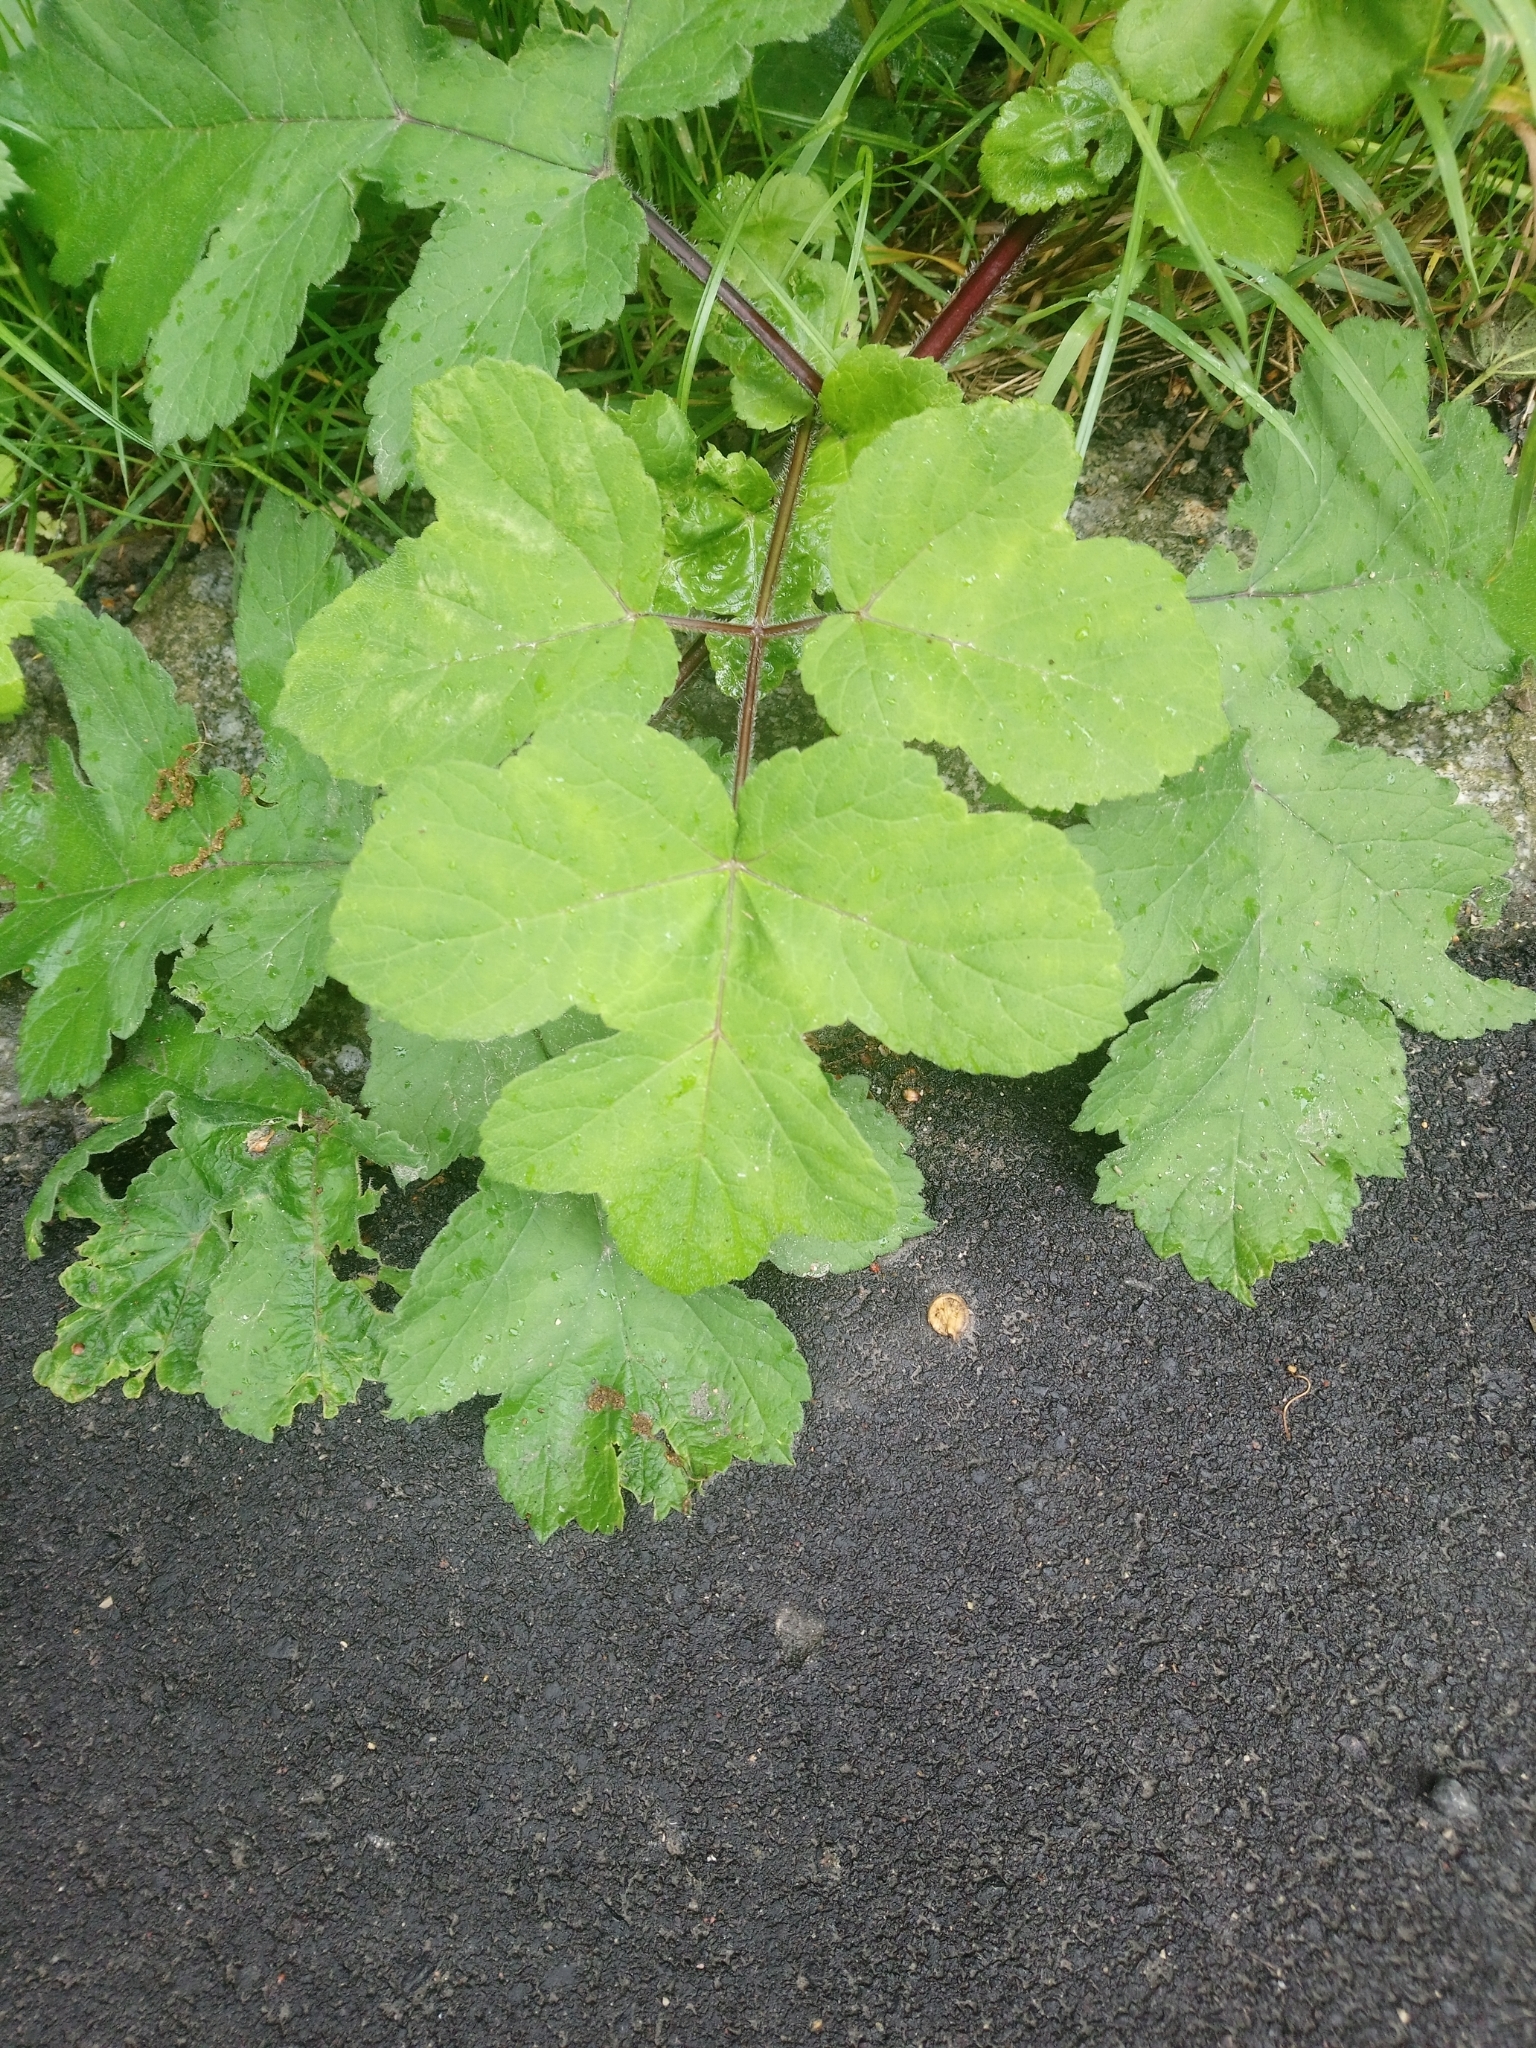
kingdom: Plantae
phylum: Tracheophyta
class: Magnoliopsida
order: Apiales
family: Apiaceae
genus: Heracleum
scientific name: Heracleum sphondylium
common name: Hogweed
